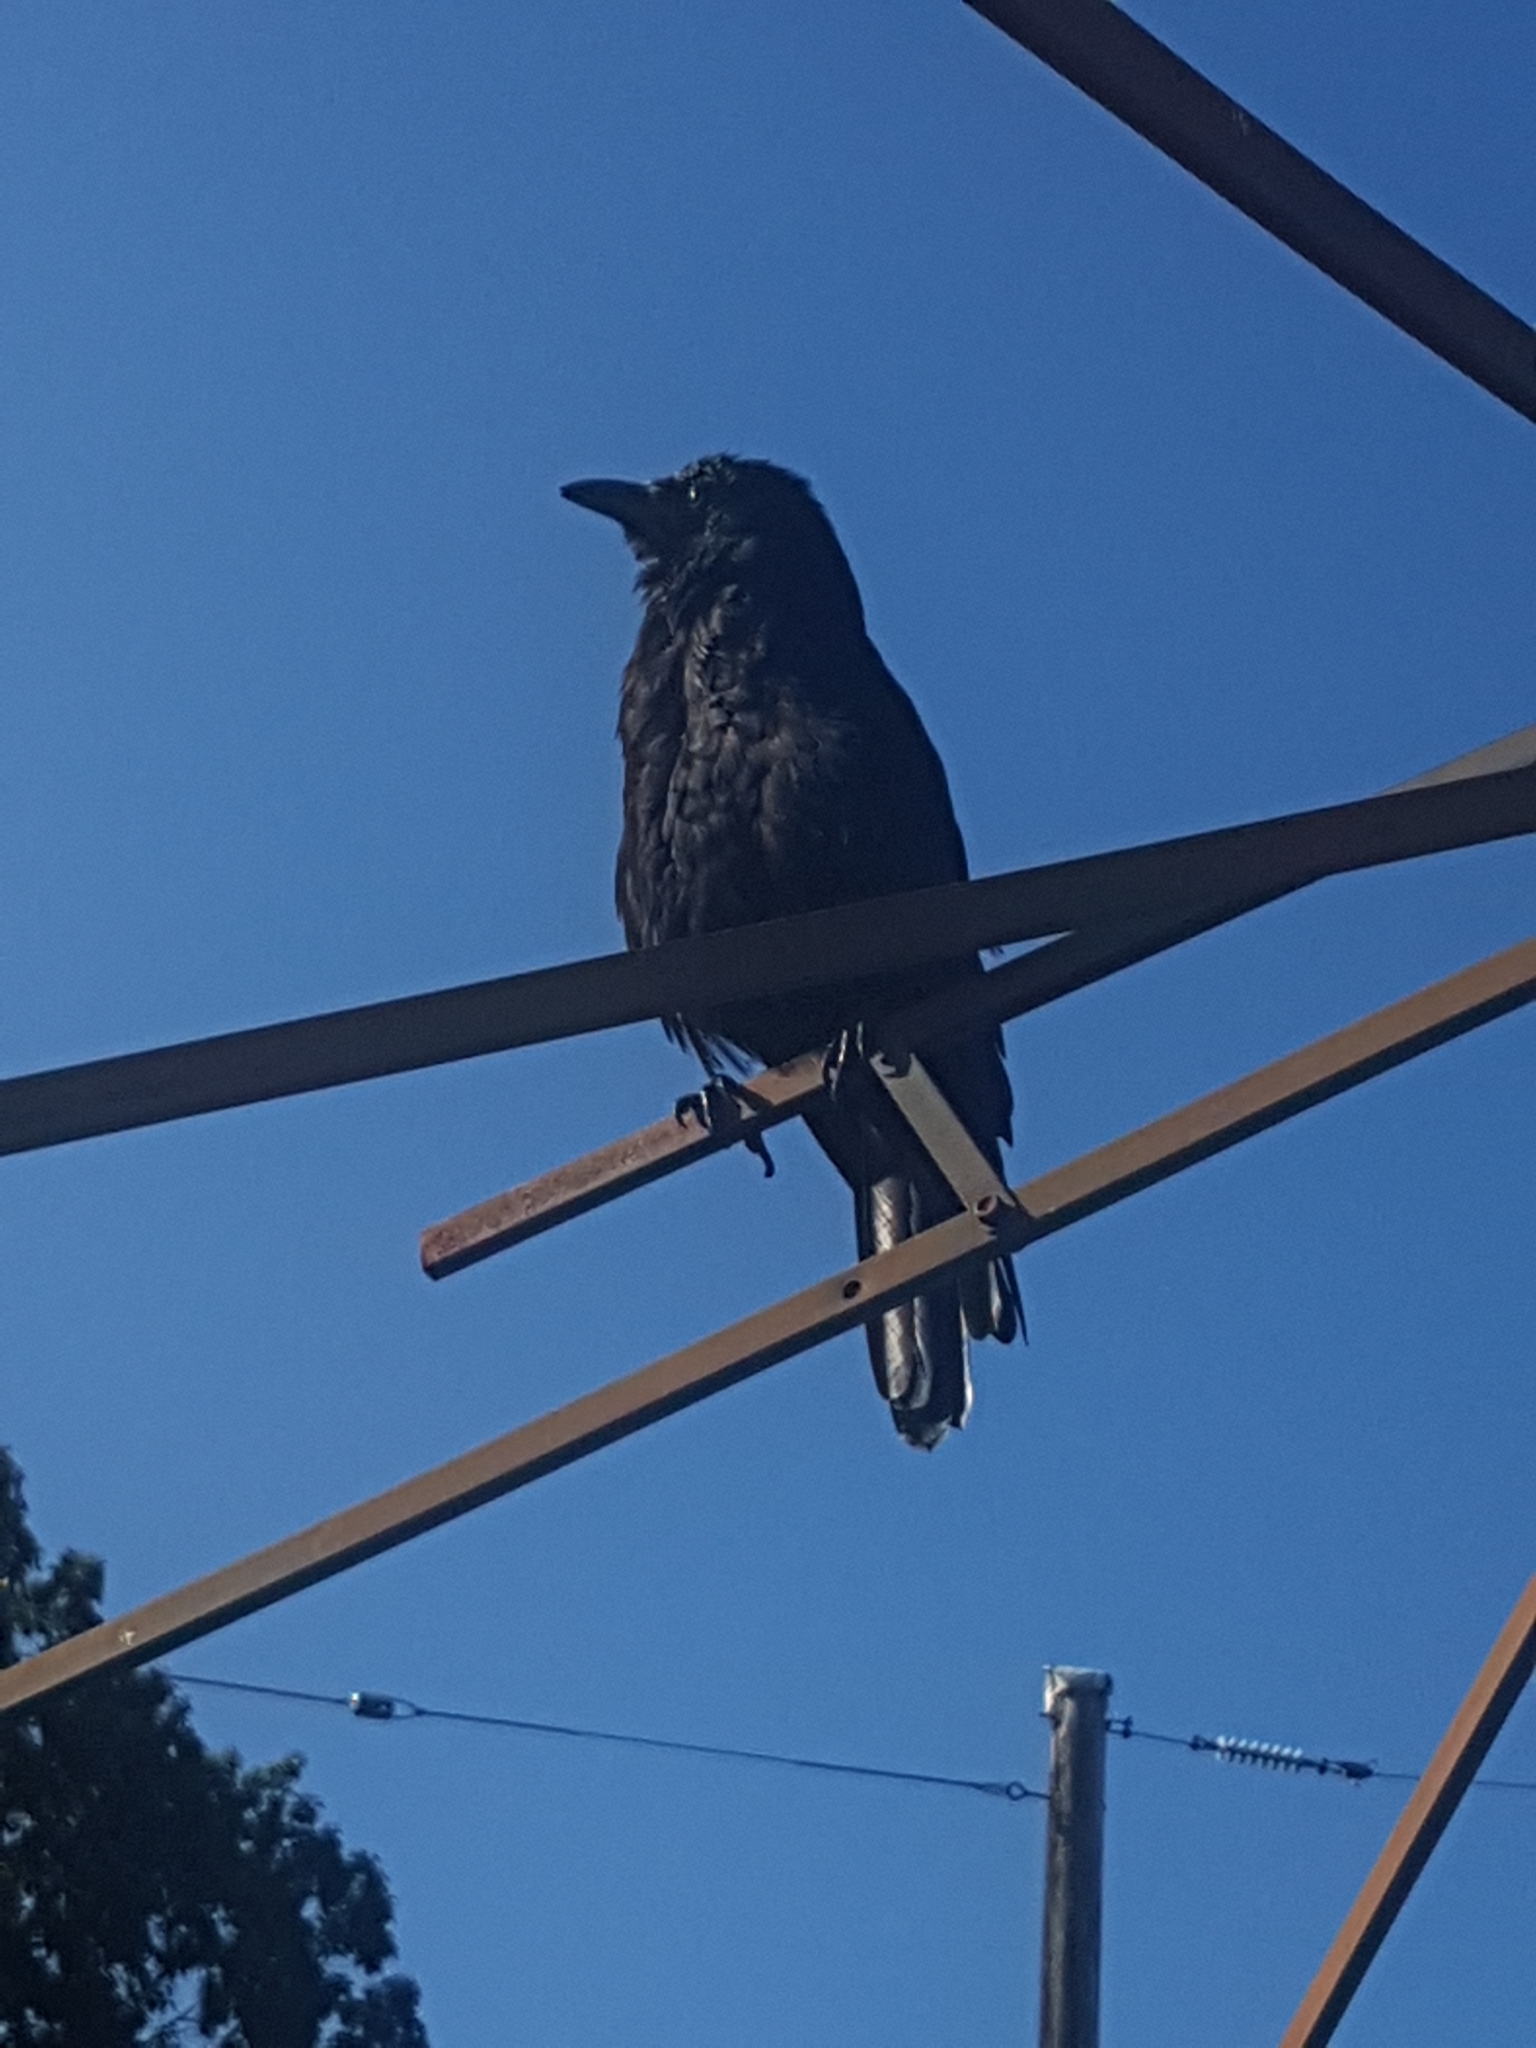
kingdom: Animalia
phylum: Chordata
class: Aves
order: Passeriformes
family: Corvidae
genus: Corvus
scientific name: Corvus brachyrhynchos
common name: American crow
